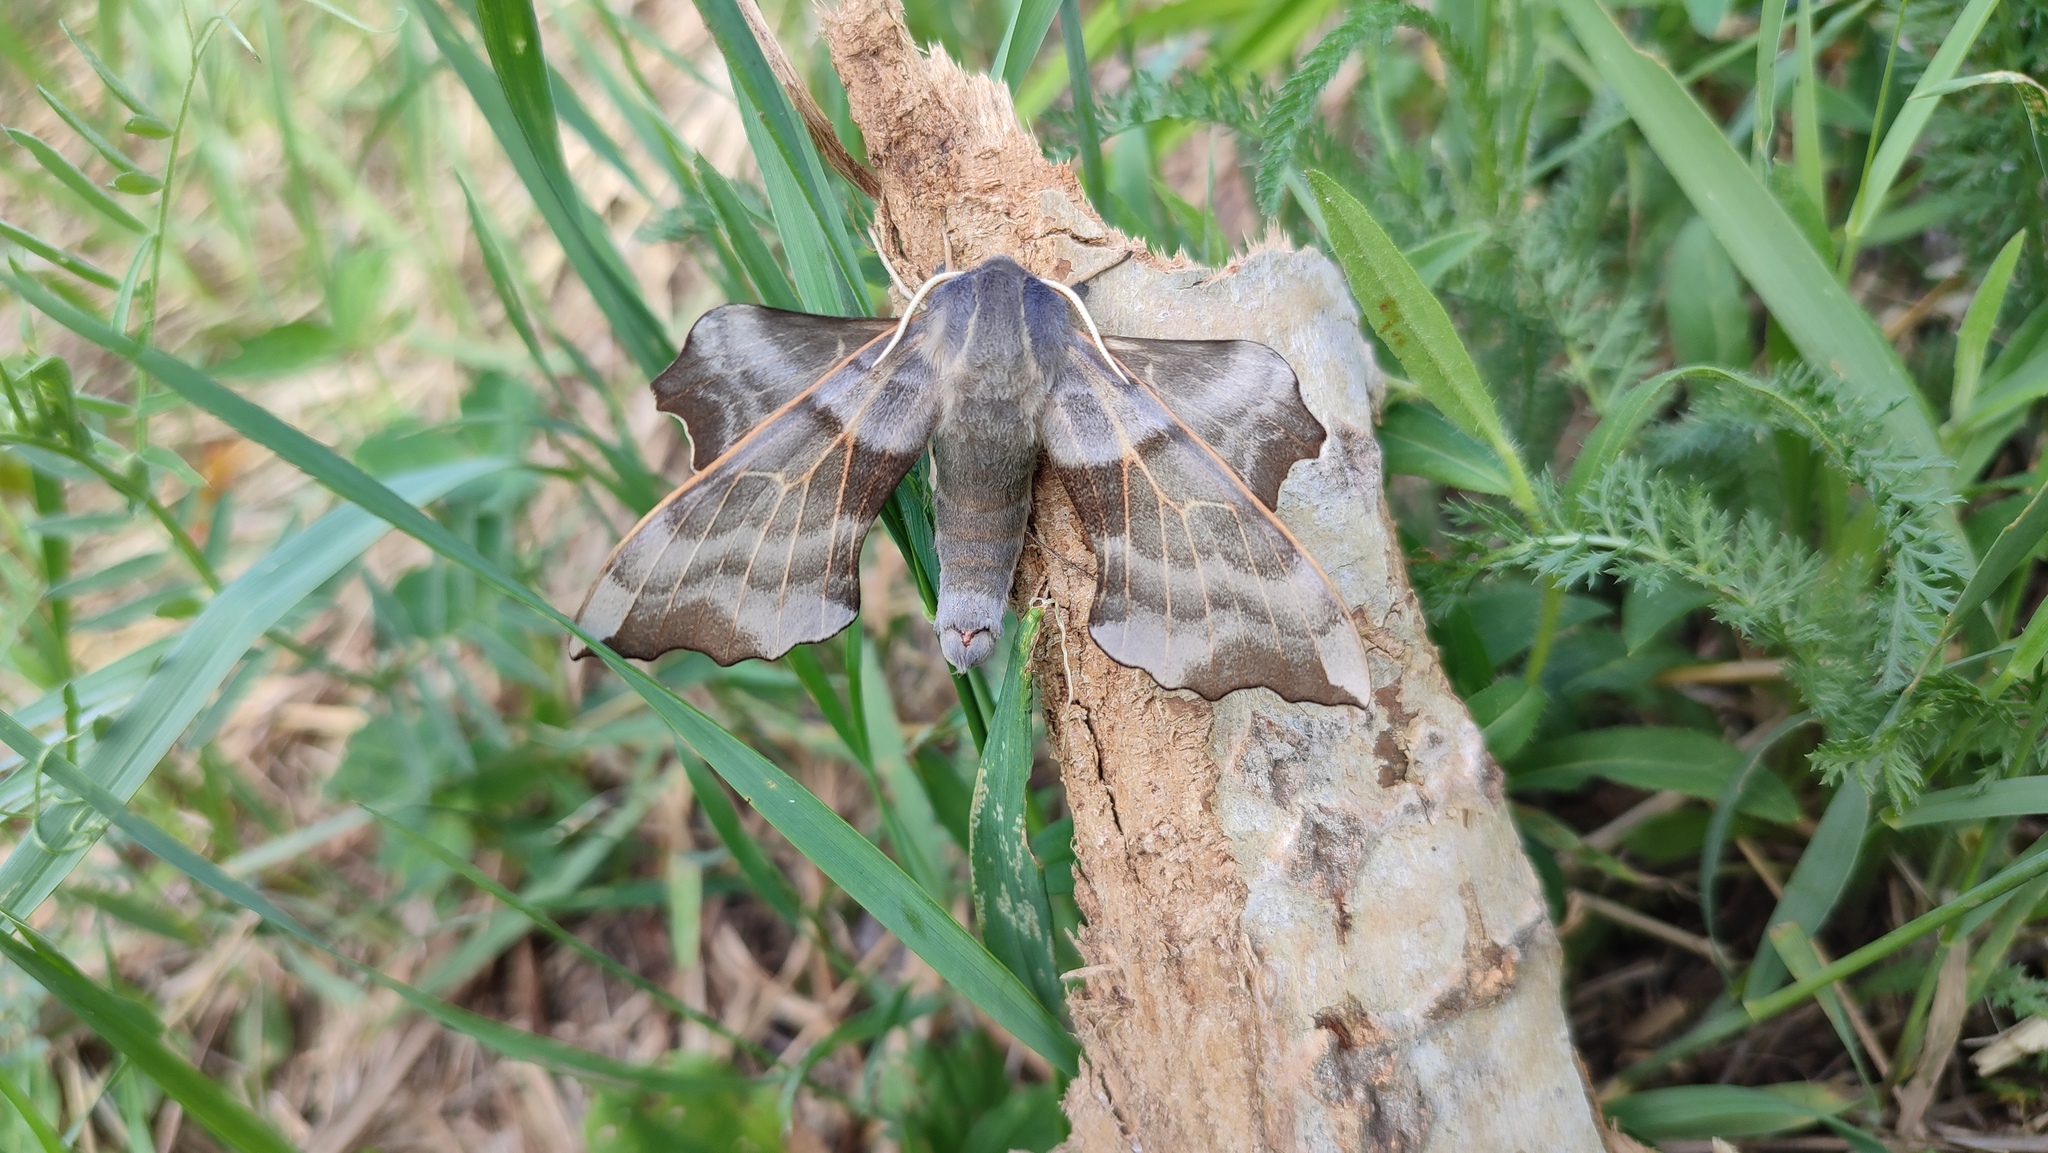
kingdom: Animalia
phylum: Arthropoda
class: Insecta
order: Lepidoptera
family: Sphingidae
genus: Laothoe
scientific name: Laothoe amurensis
